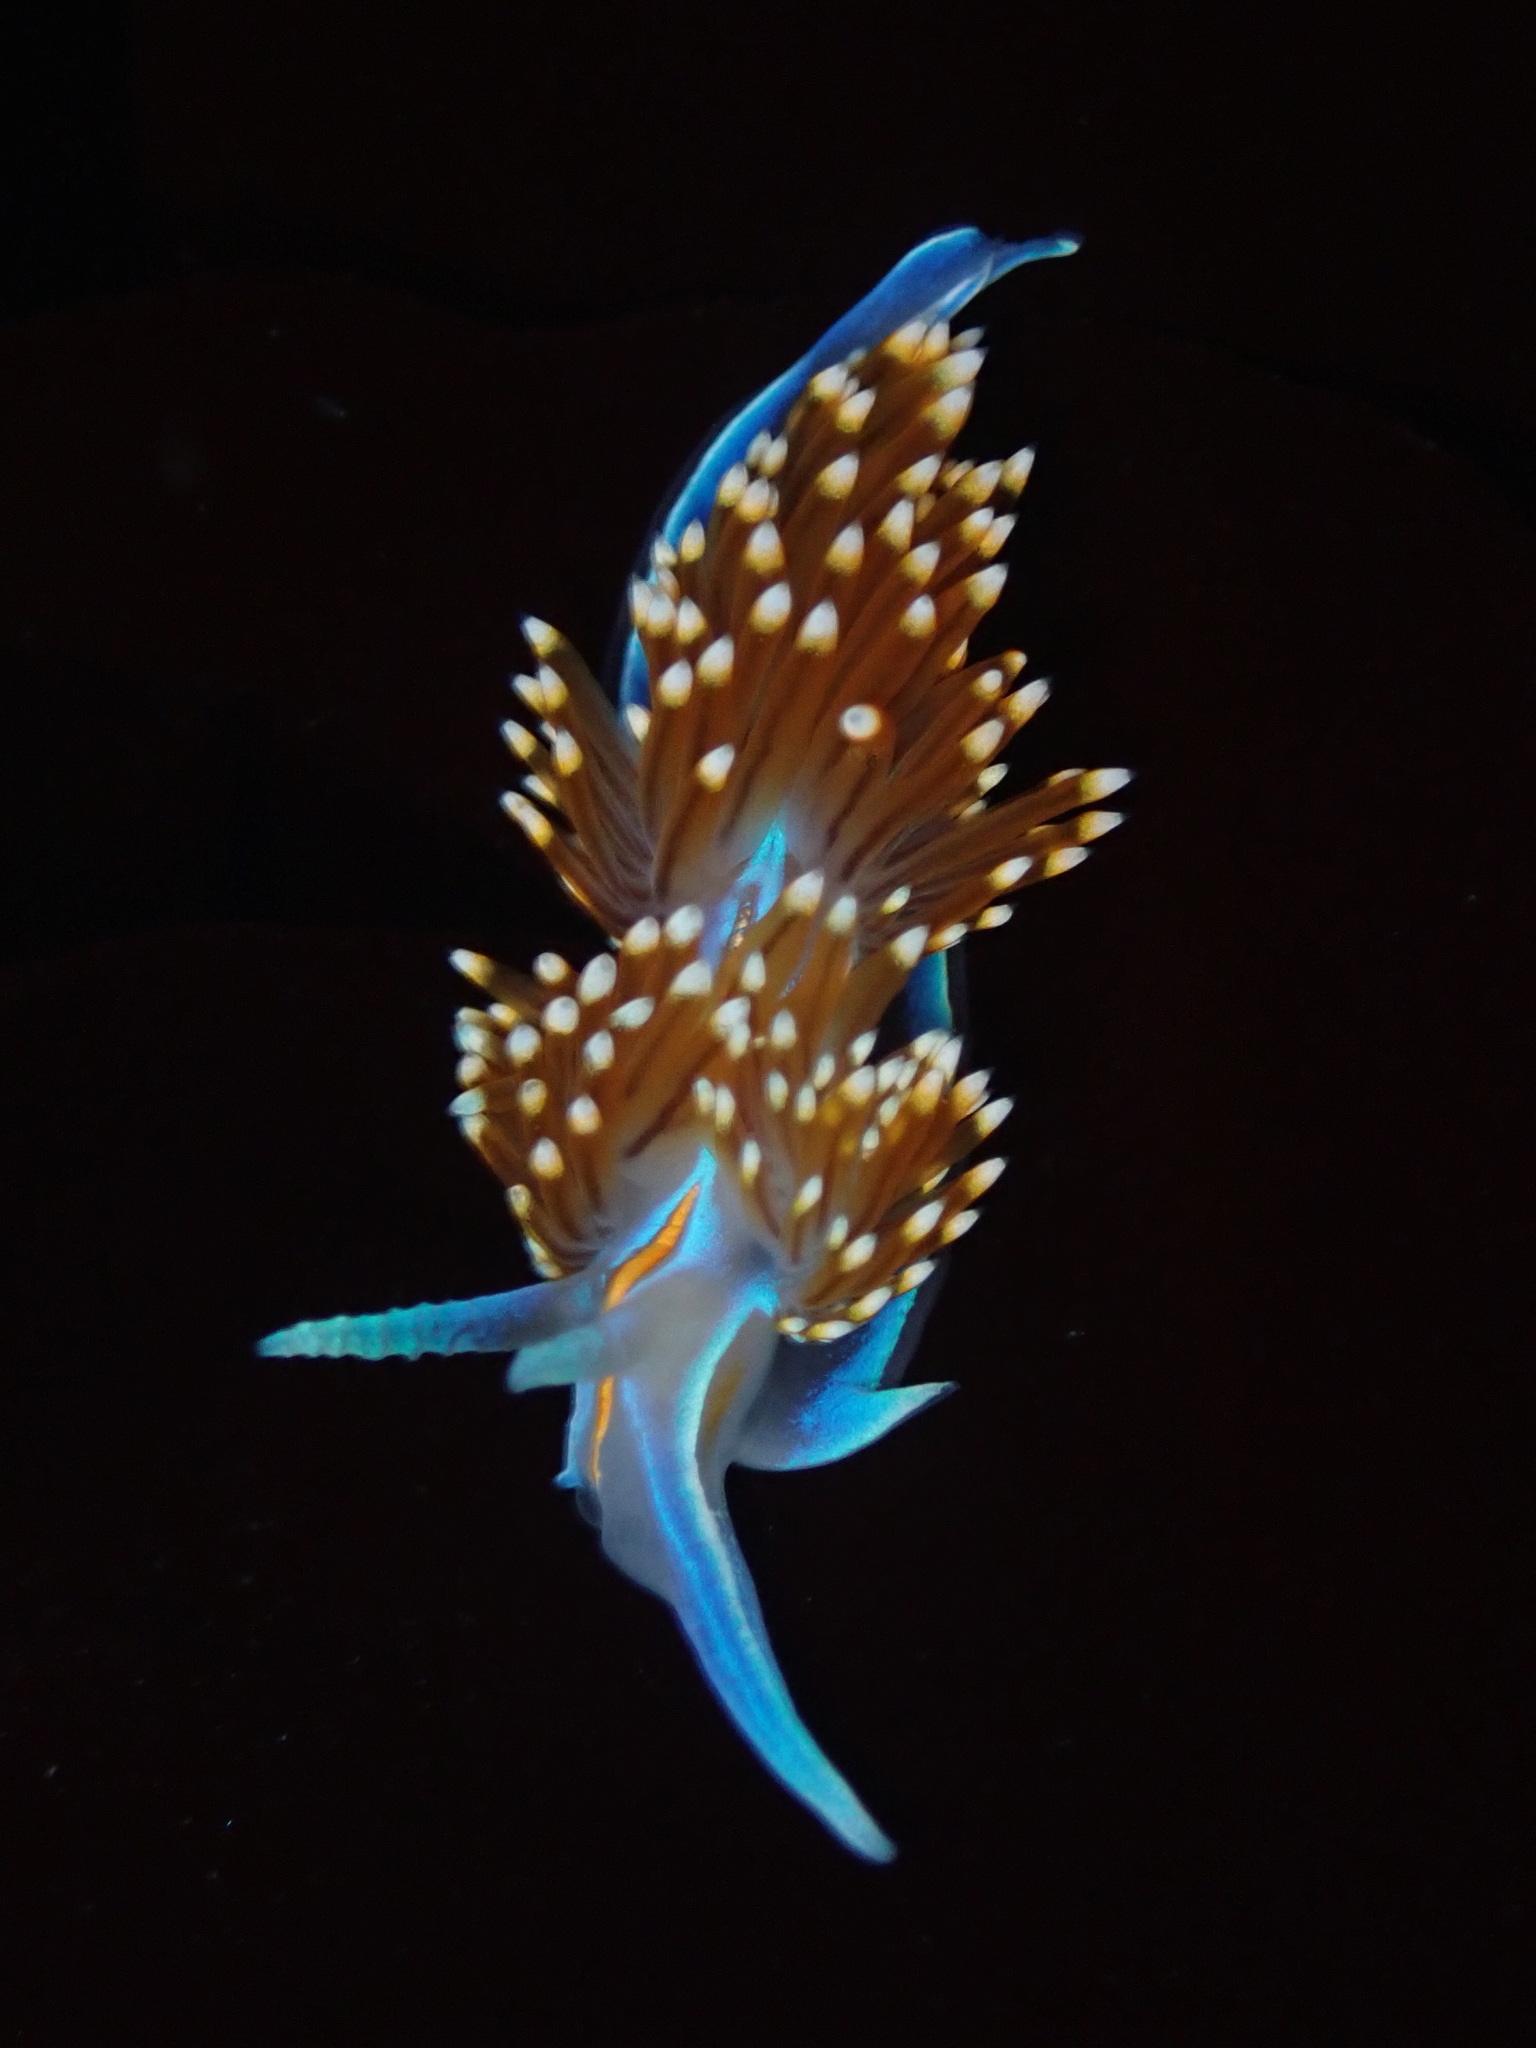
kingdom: Animalia
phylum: Mollusca
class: Gastropoda
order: Nudibranchia
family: Myrrhinidae
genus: Hermissenda
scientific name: Hermissenda opalescens
